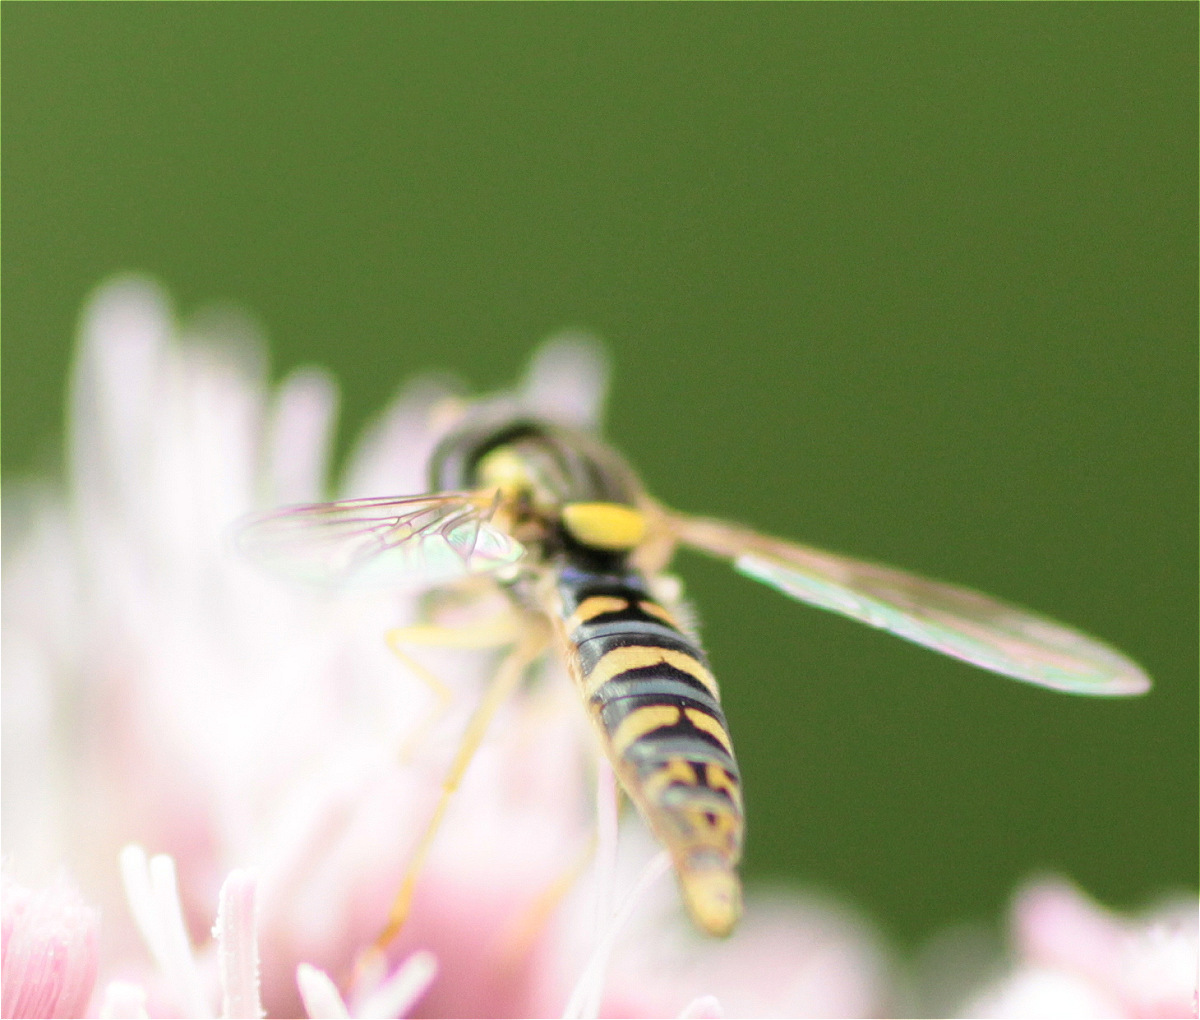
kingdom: Animalia
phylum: Arthropoda
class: Insecta
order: Diptera
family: Syrphidae
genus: Sphaerophoria
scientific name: Sphaerophoria
